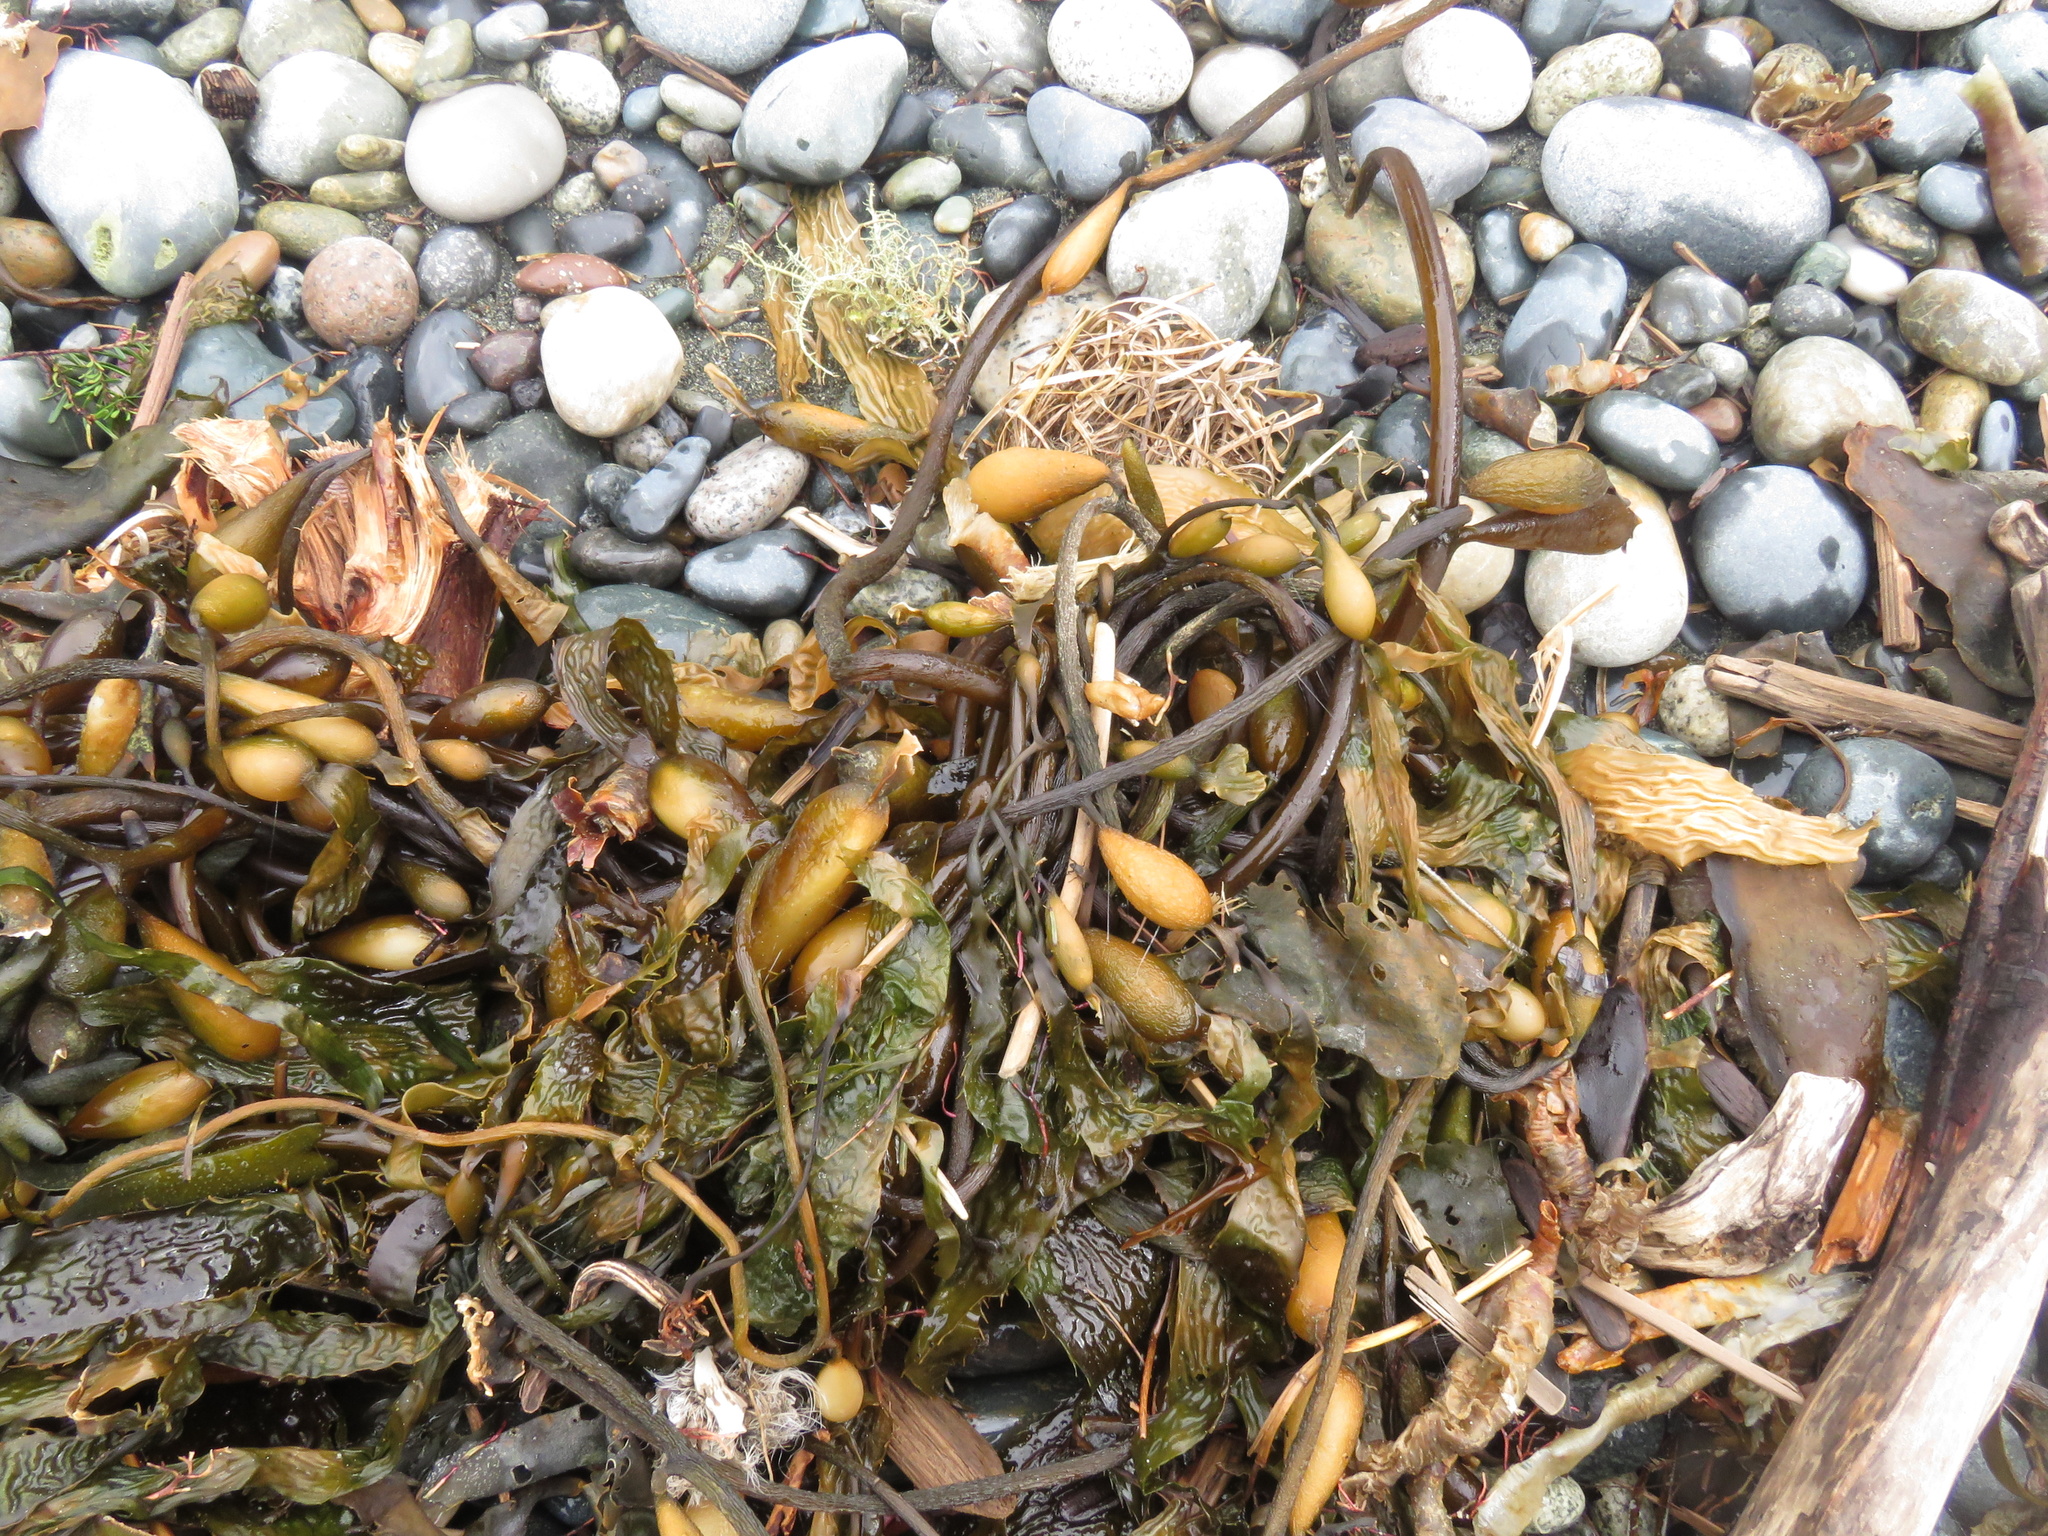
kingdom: Chromista
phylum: Ochrophyta
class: Phaeophyceae
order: Laminariales
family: Laminariaceae
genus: Macrocystis
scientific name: Macrocystis pyrifera
